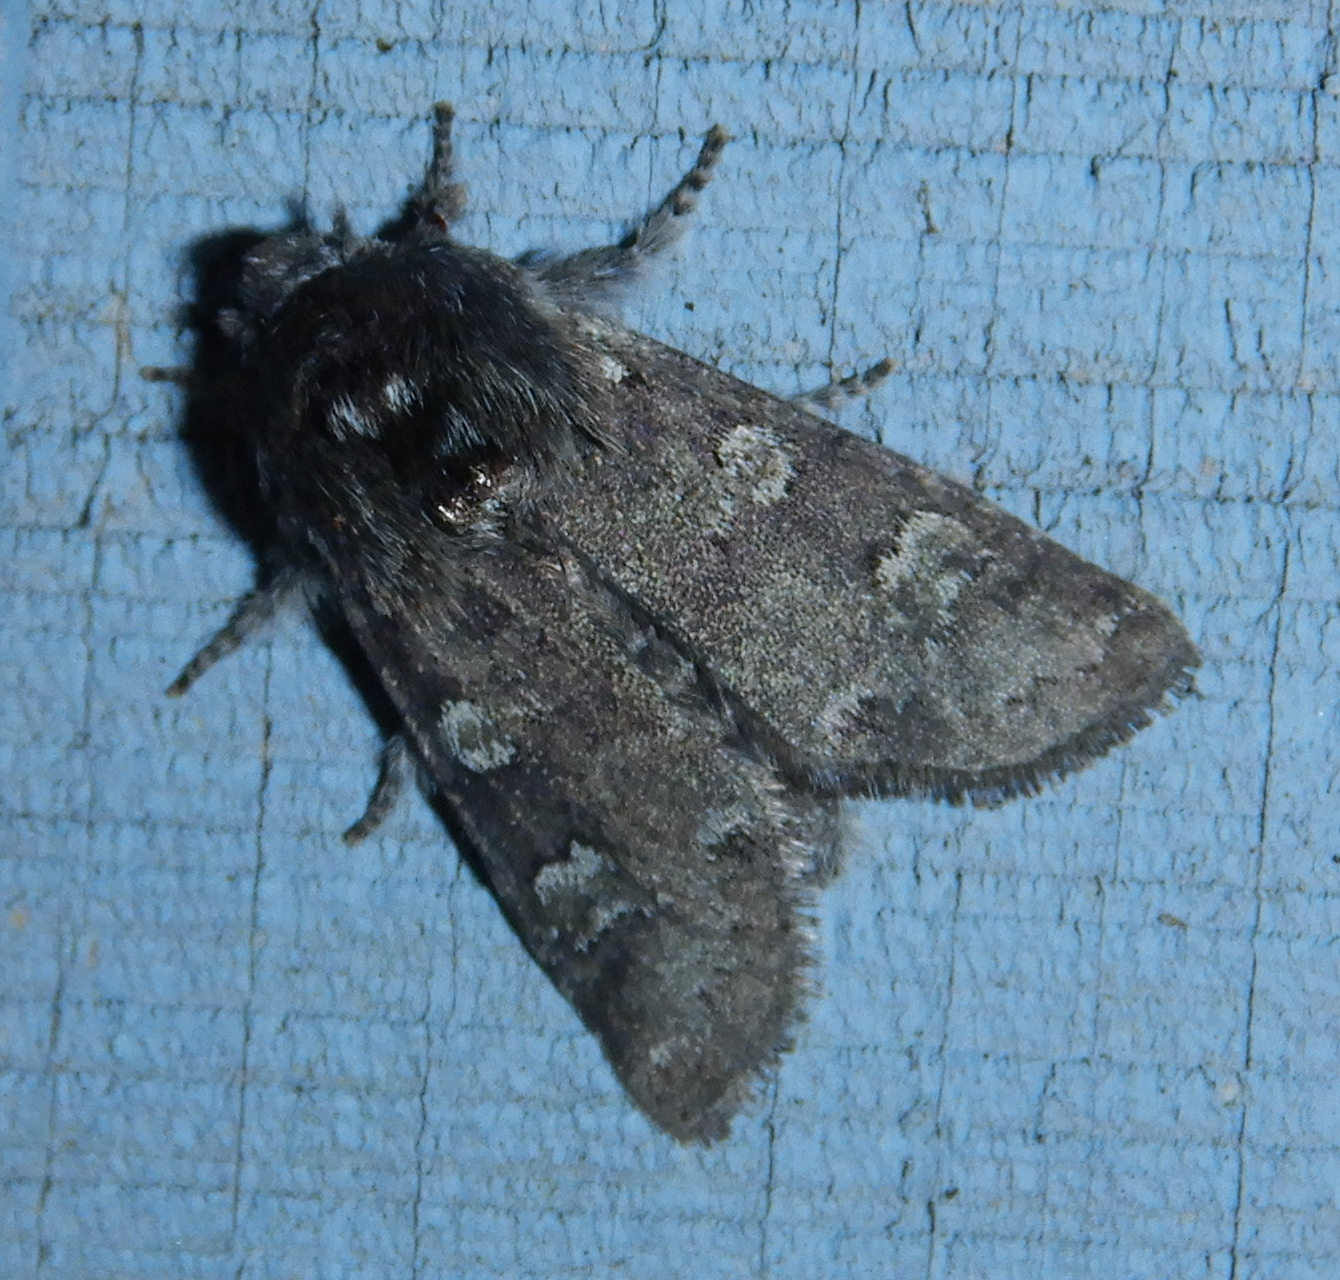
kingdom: Animalia
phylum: Arthropoda
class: Insecta
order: Lepidoptera
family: Noctuidae
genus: Psaphida
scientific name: Psaphida rolandi
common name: Roland's sallow
